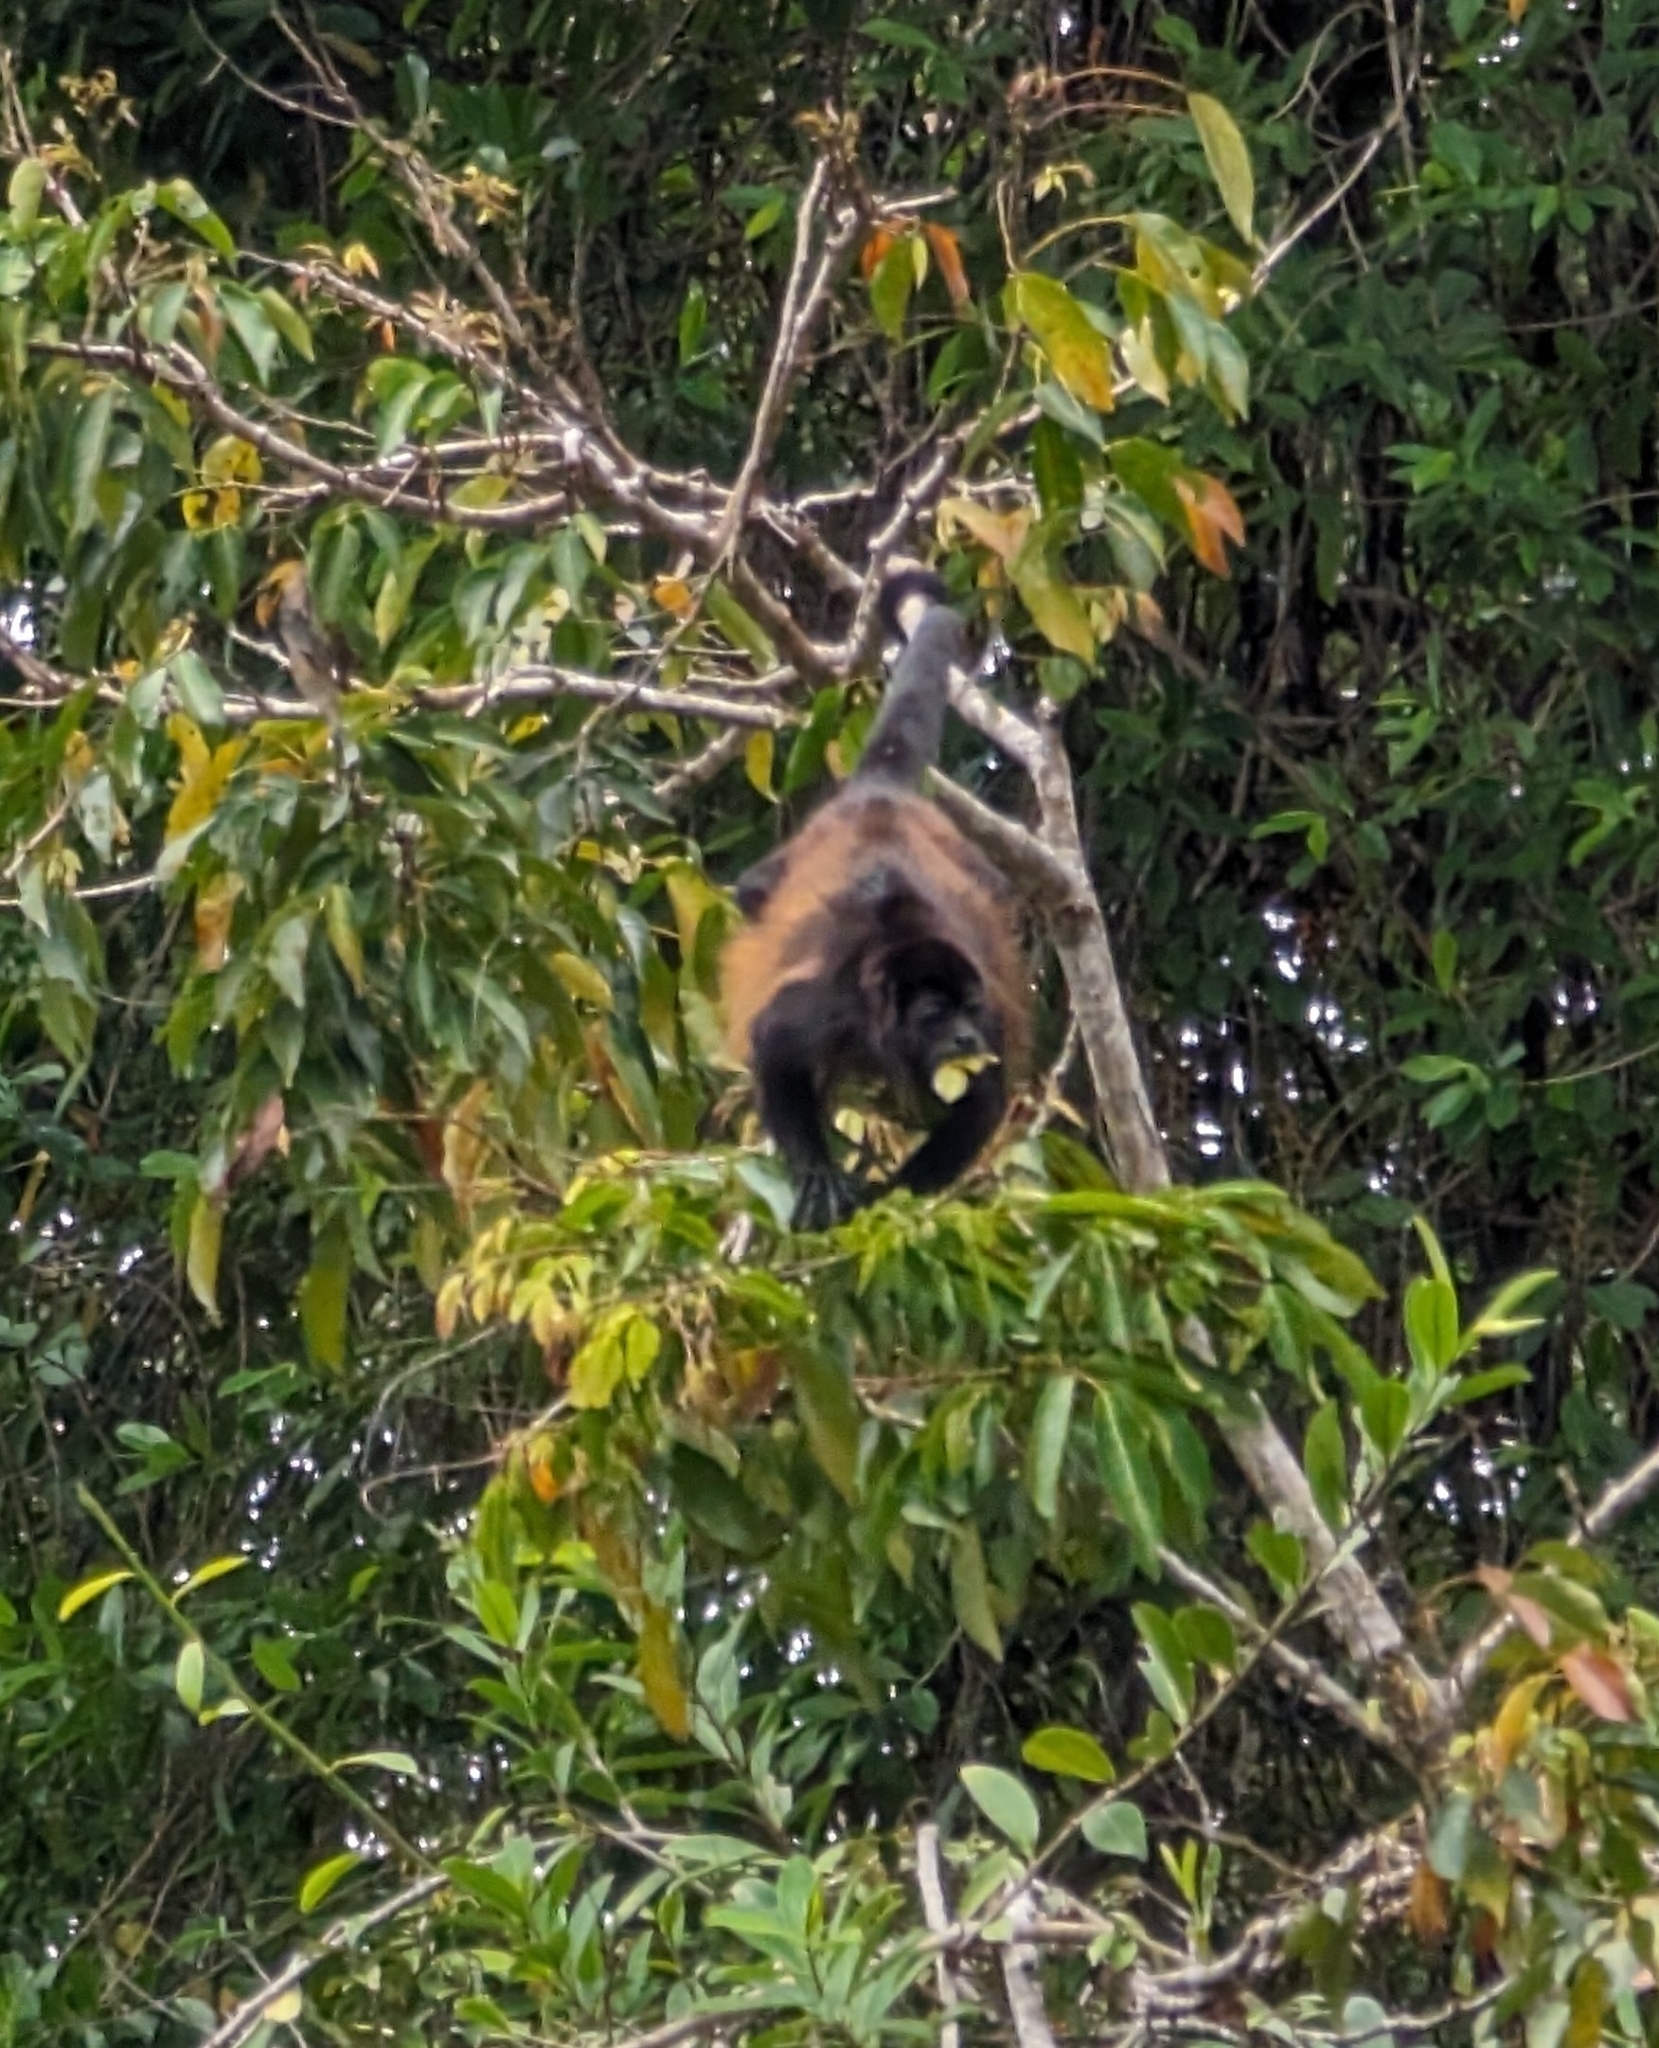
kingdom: Animalia
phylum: Chordata
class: Mammalia
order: Primates
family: Atelidae
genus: Alouatta
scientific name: Alouatta palliata
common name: Mantled howler
